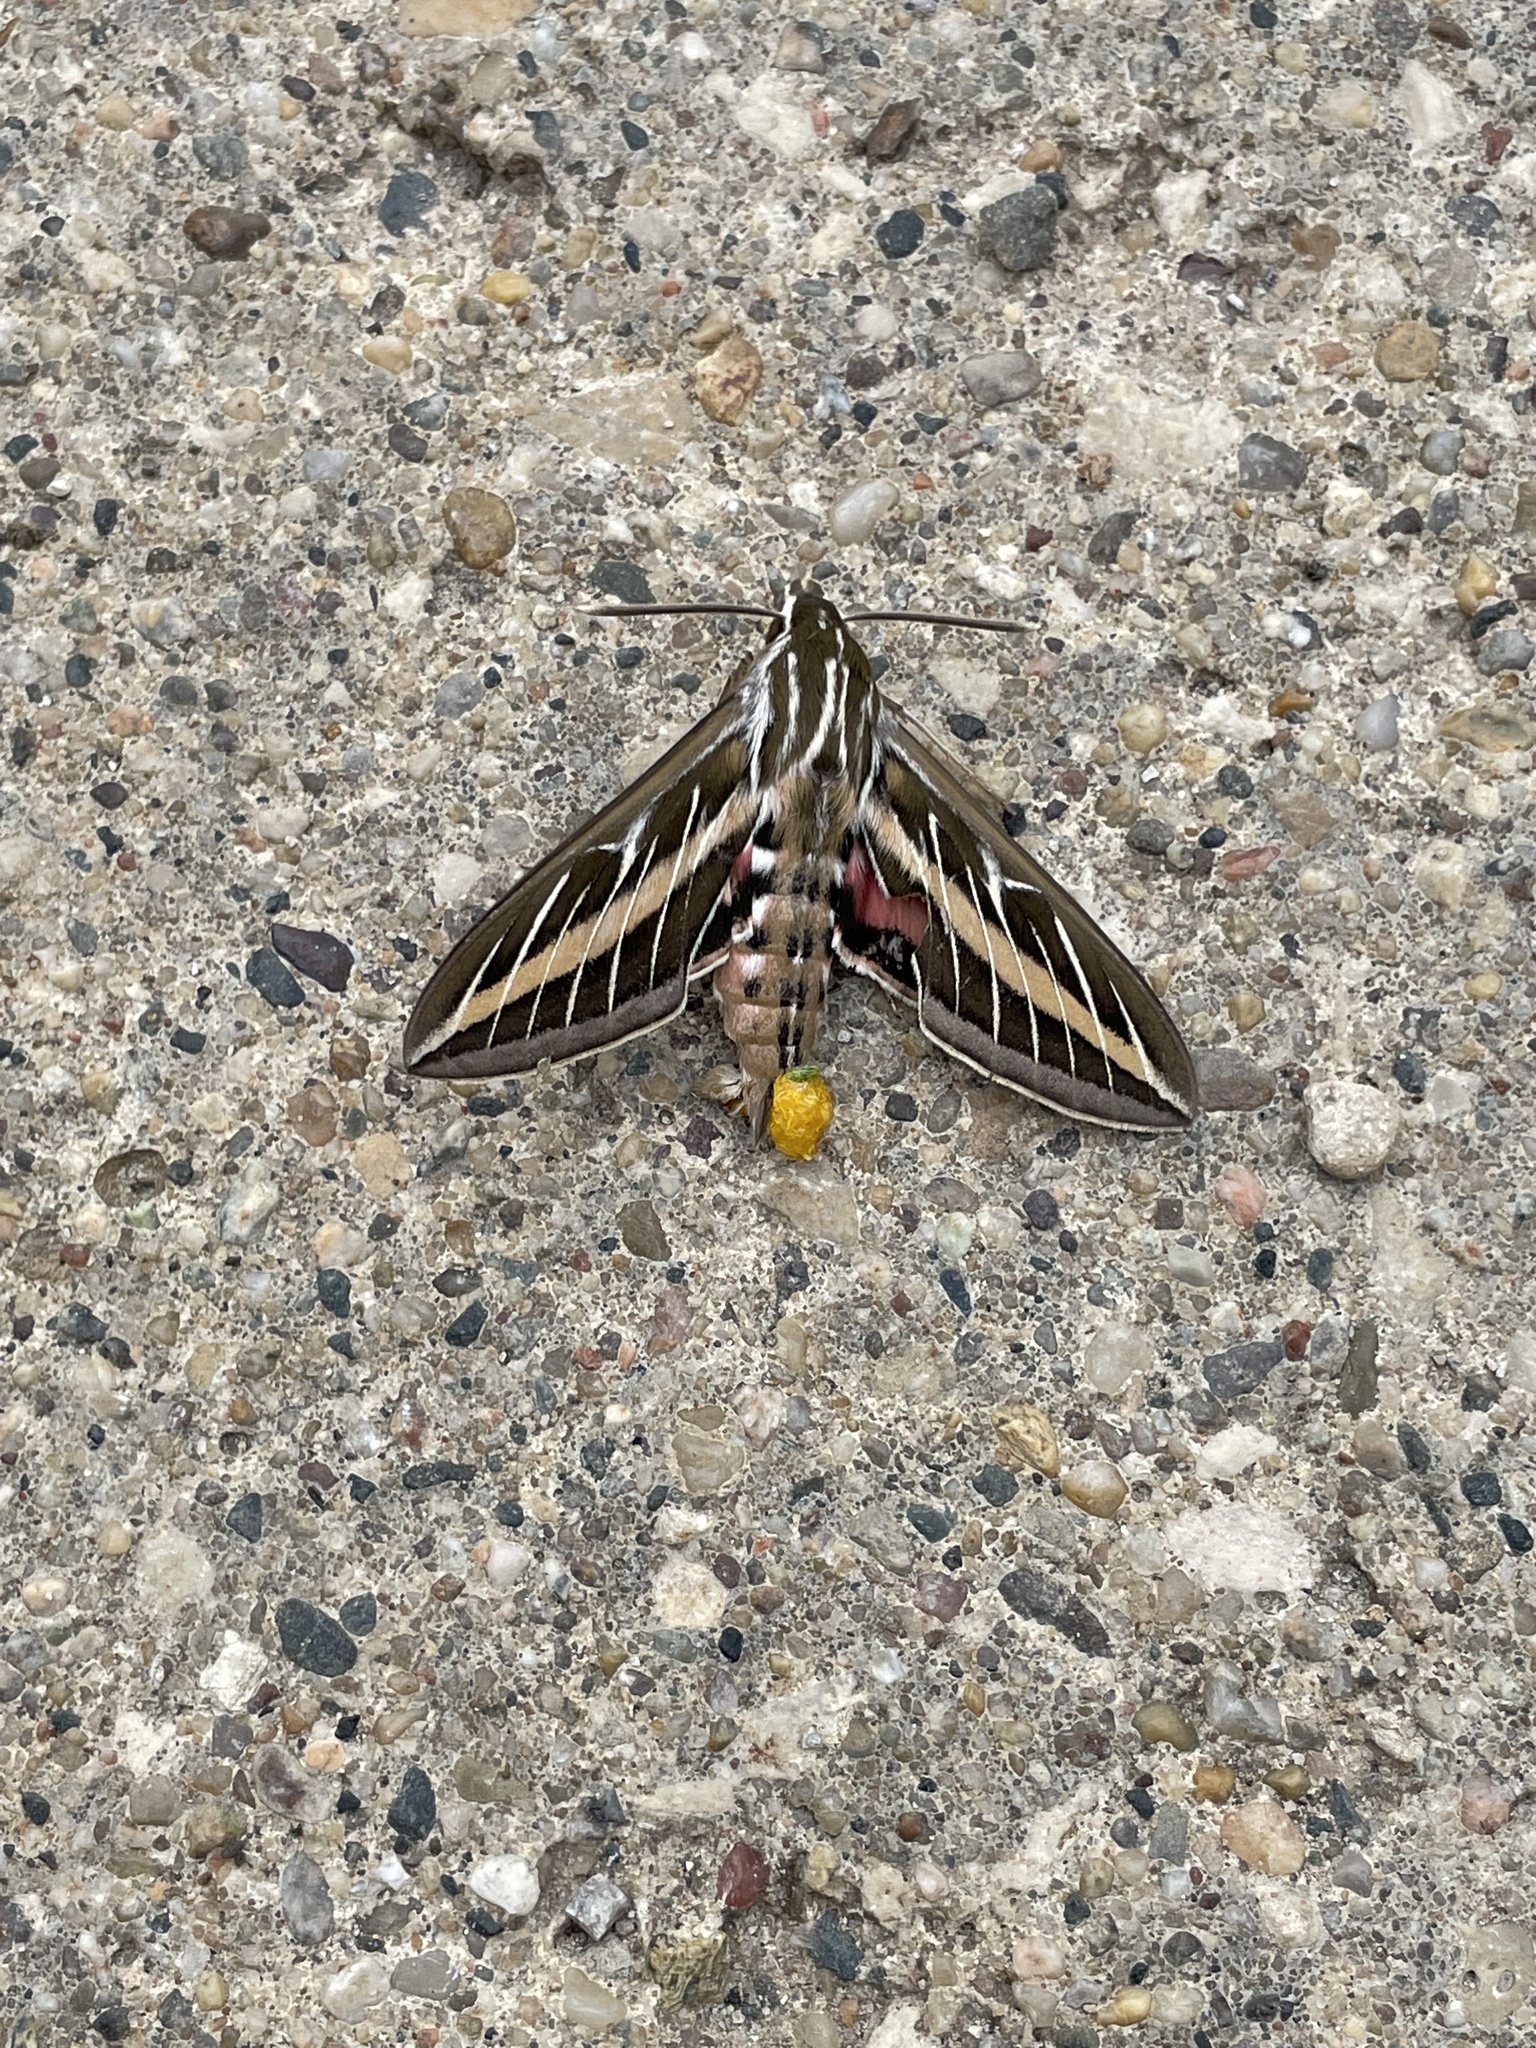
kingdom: Animalia
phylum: Arthropoda
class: Insecta
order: Lepidoptera
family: Sphingidae
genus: Hyles
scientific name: Hyles lineata
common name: White-lined sphinx
